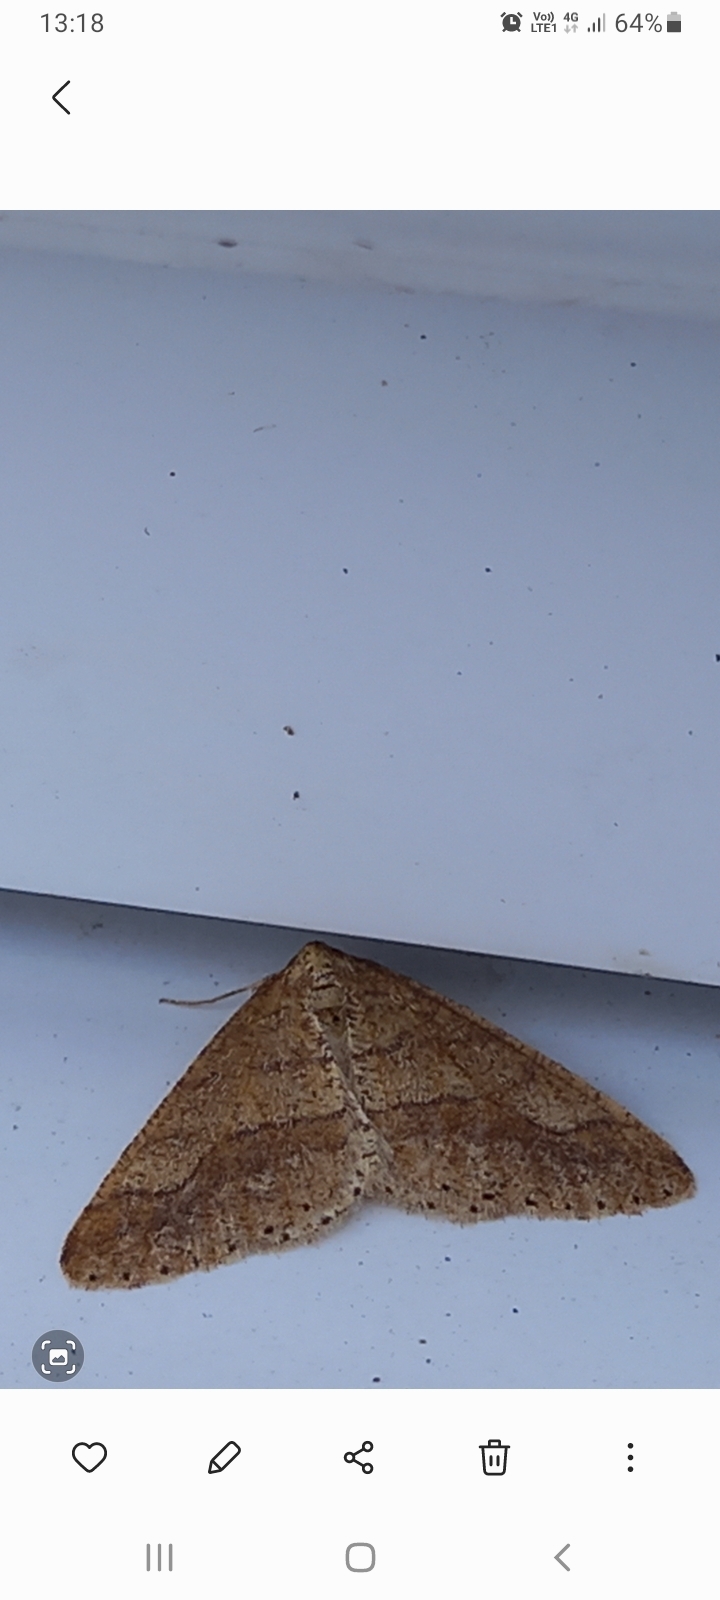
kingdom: Animalia
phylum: Arthropoda
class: Insecta
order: Lepidoptera
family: Geometridae
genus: Agriopis
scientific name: Agriopis marginaria
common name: Dotted border
